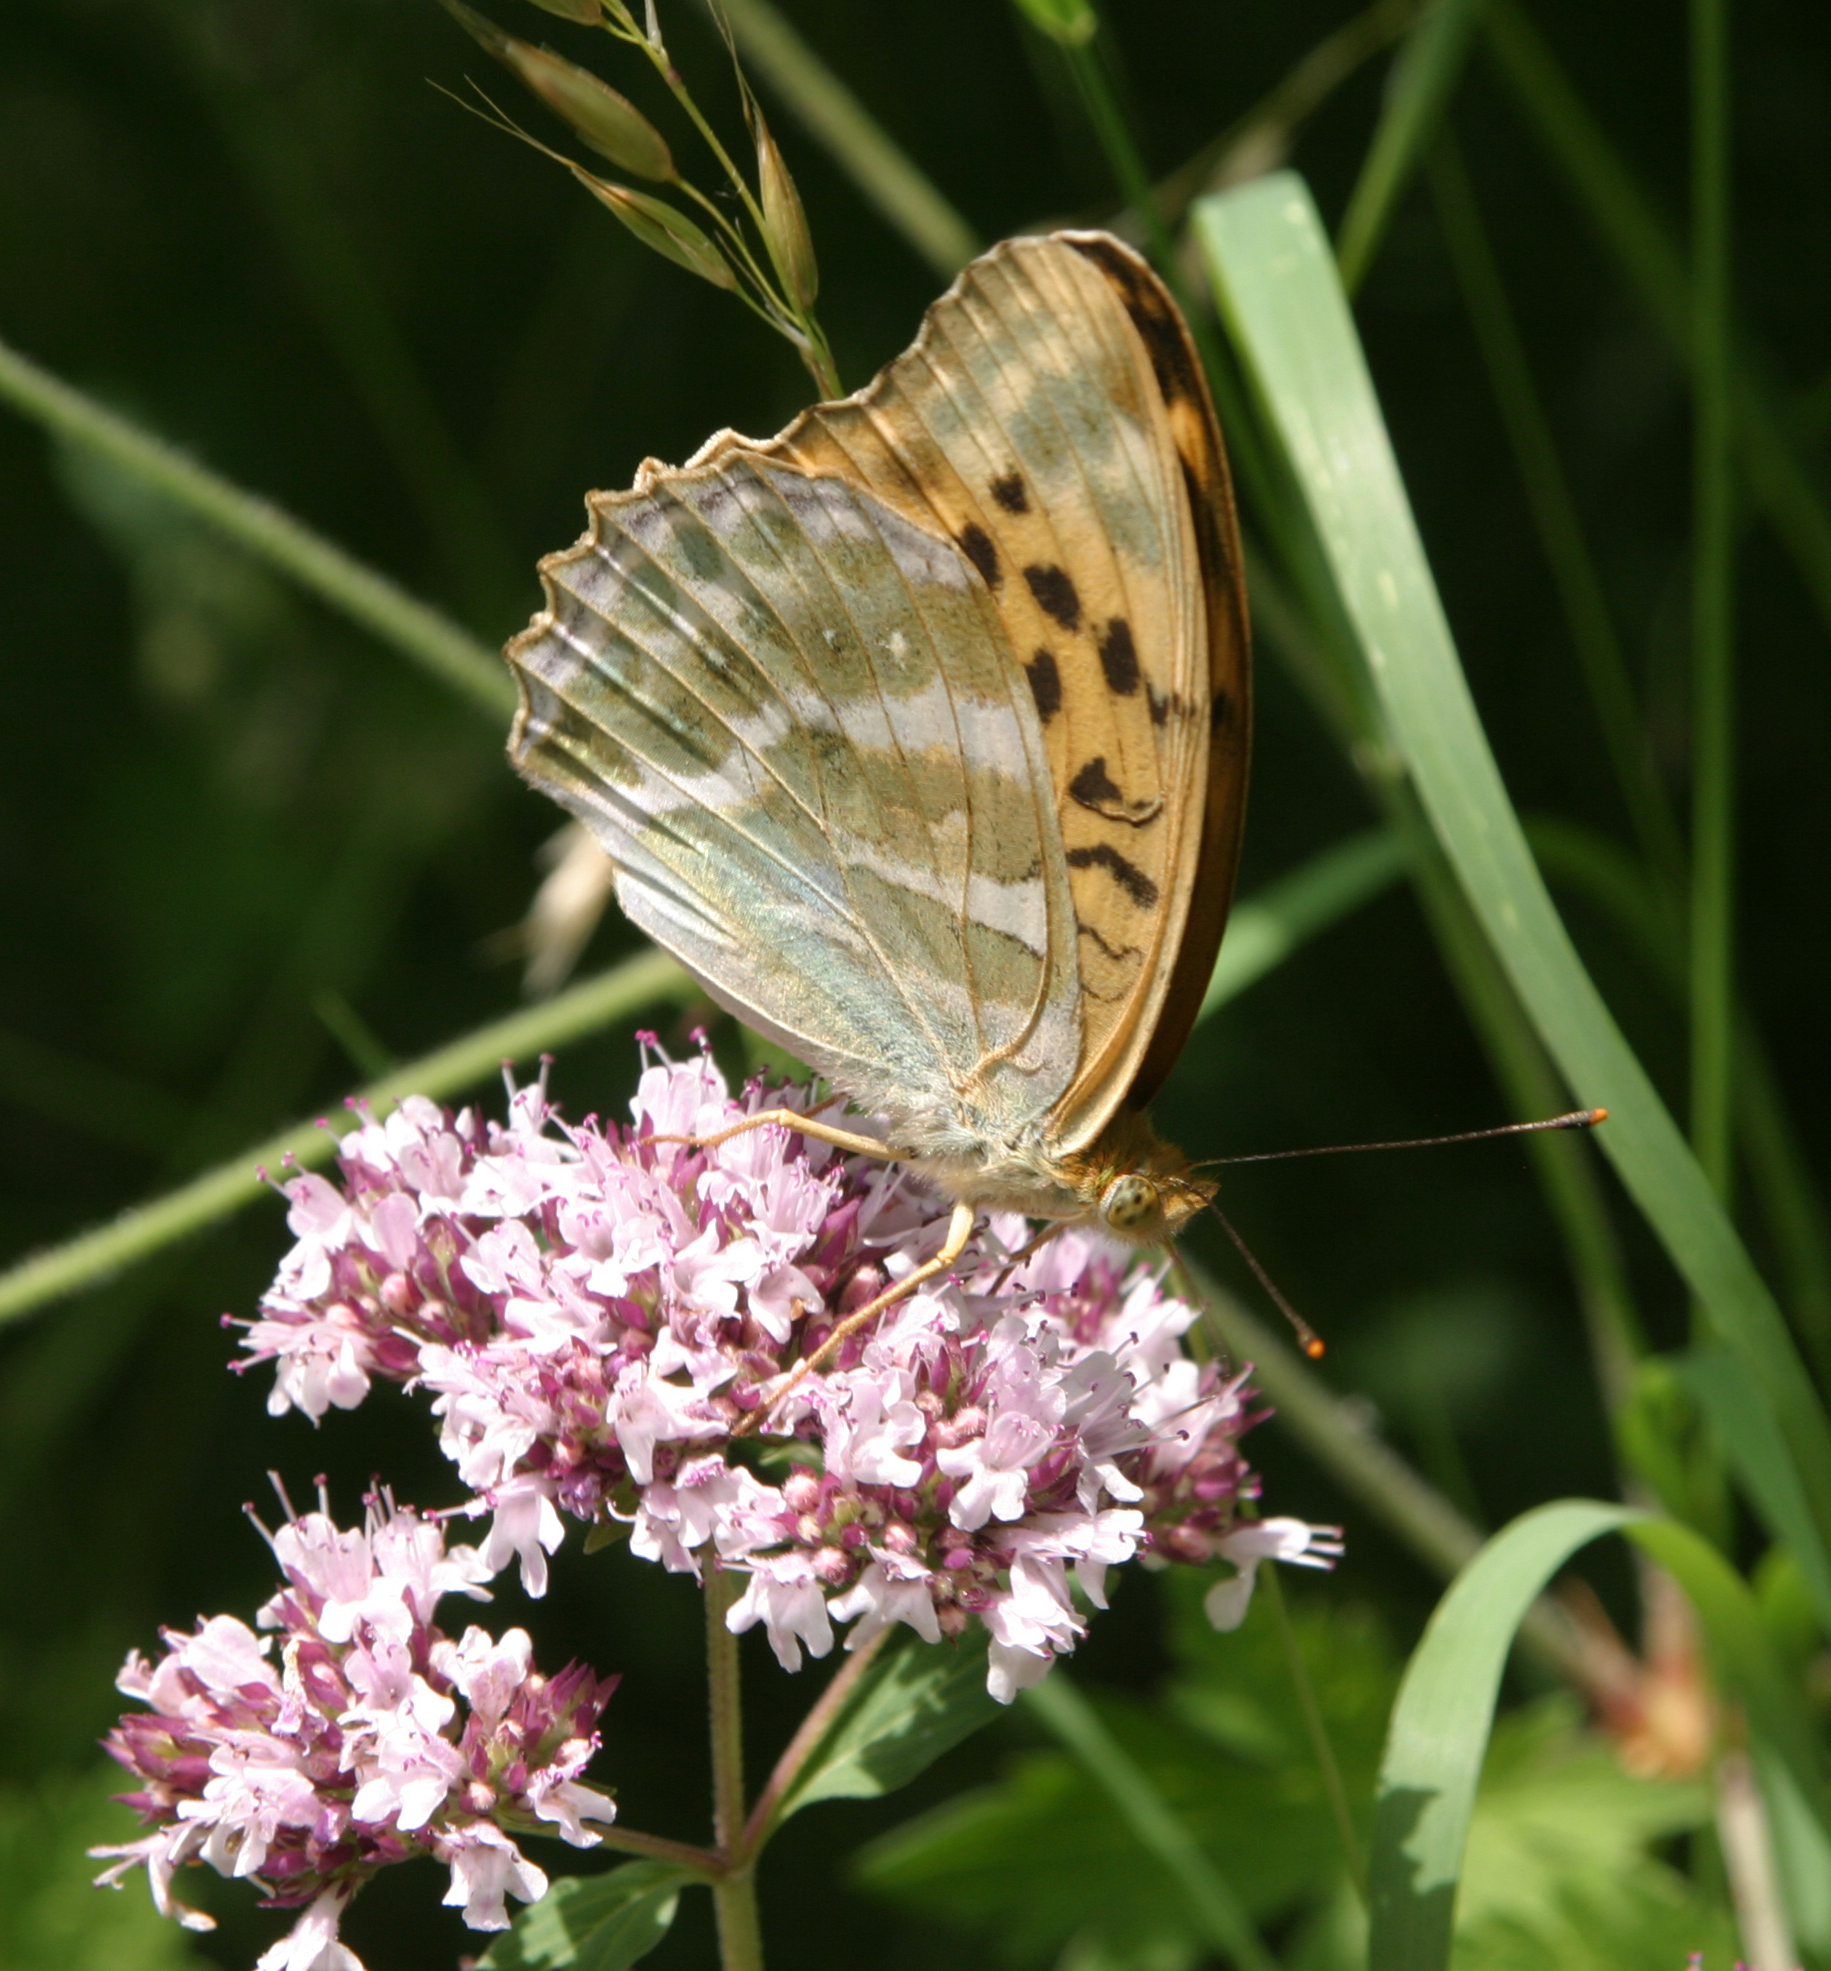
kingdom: Plantae
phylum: Tracheophyta
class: Magnoliopsida
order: Lamiales
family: Lamiaceae
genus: Origanum
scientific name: Origanum vulgare
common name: Wild marjoram
